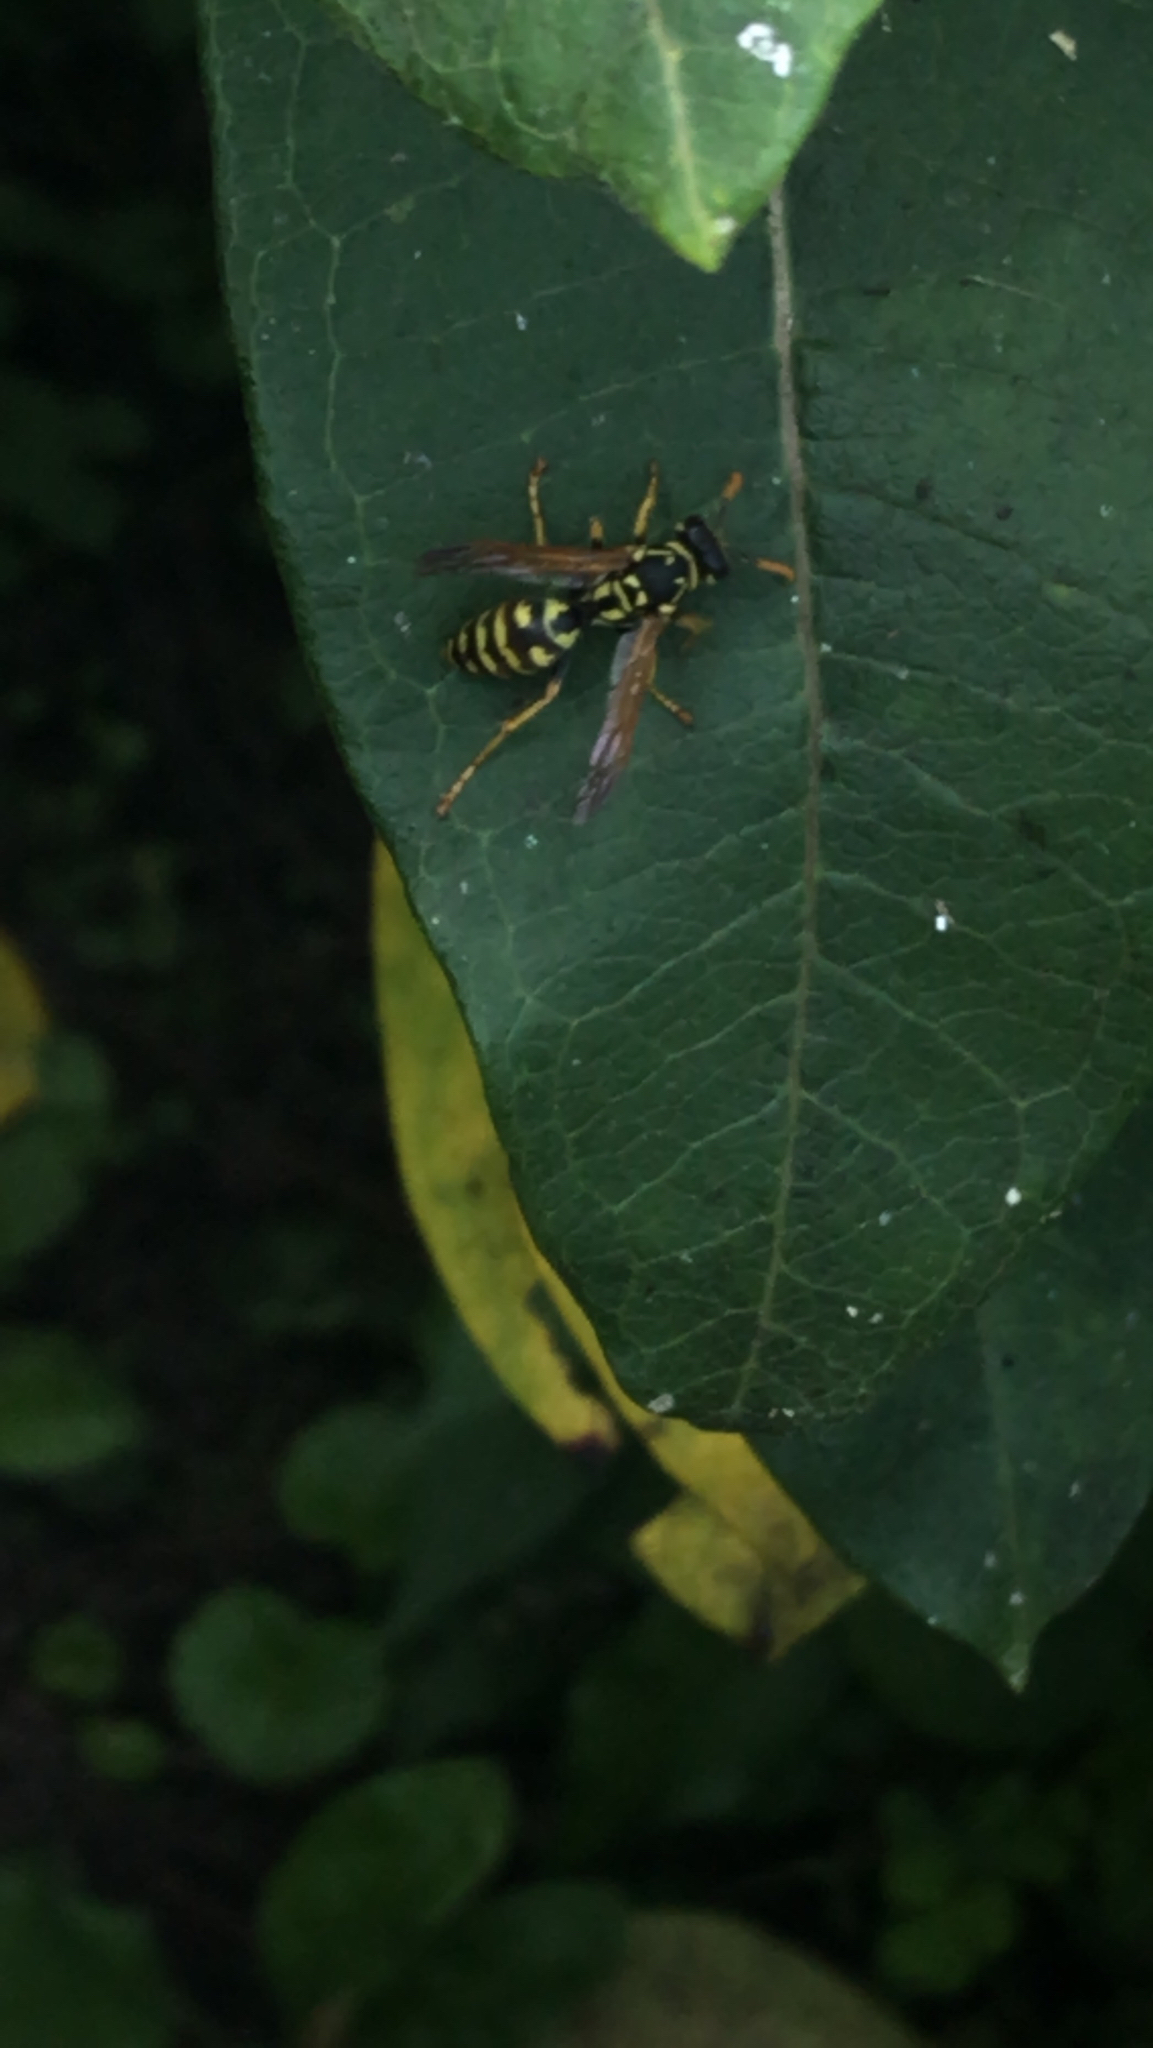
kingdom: Animalia
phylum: Arthropoda
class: Insecta
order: Hymenoptera
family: Eumenidae
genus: Polistes
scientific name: Polistes dominula
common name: Paper wasp
